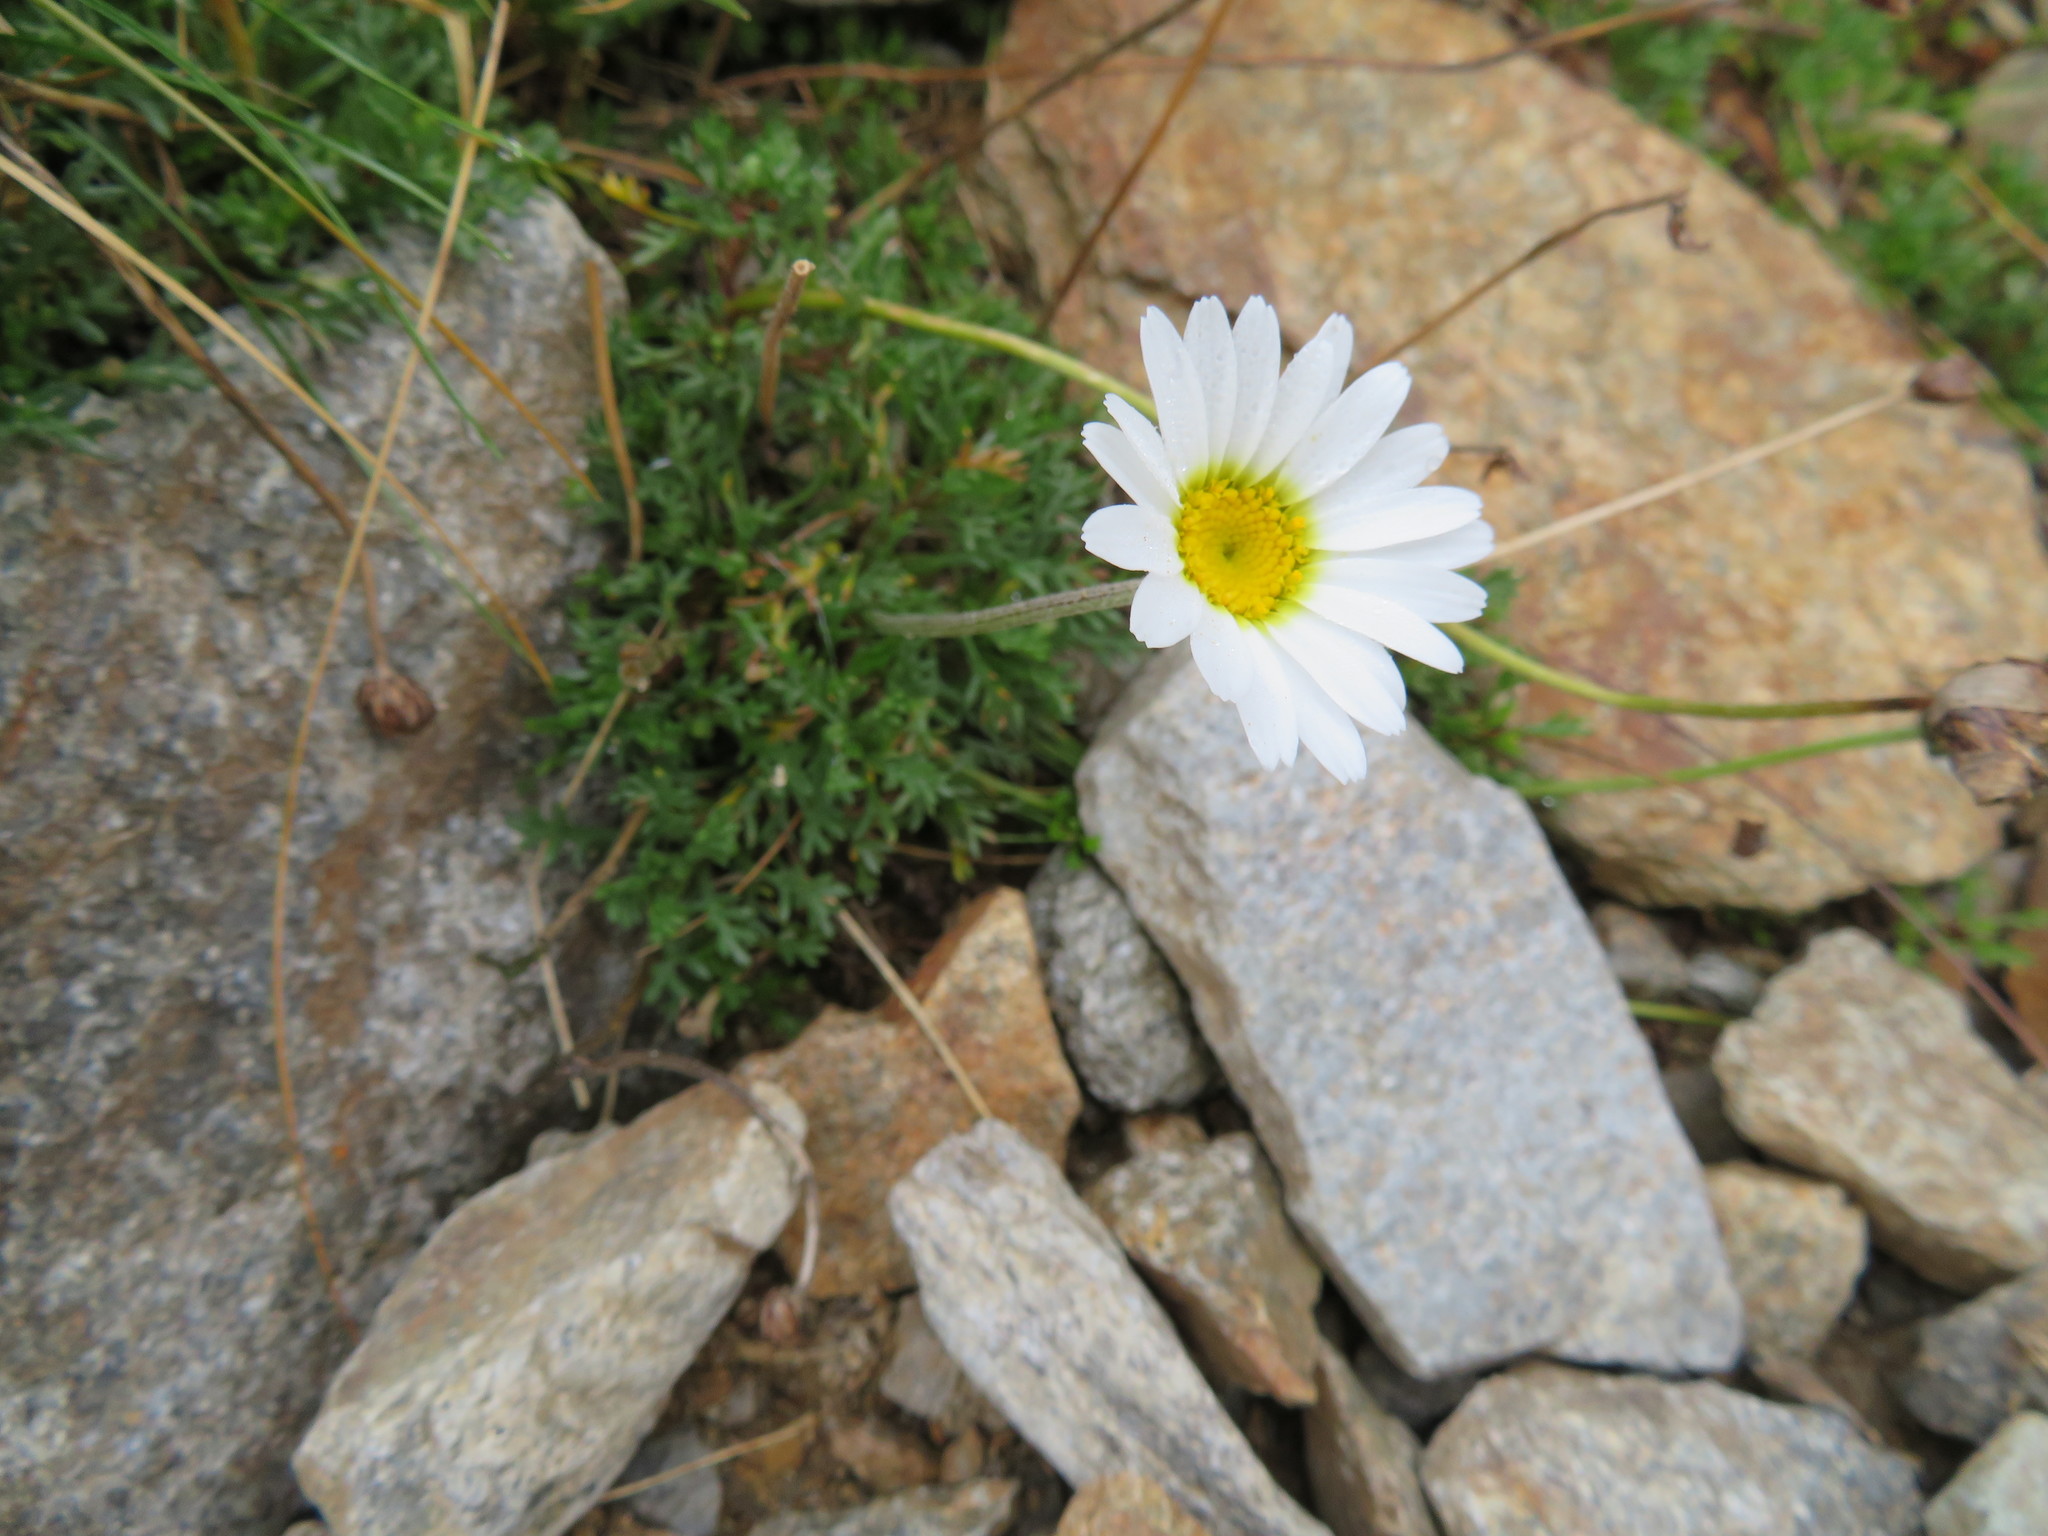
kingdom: Plantae
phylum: Tracheophyta
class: Magnoliopsida
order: Asterales
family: Asteraceae
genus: Leucanthemopsis
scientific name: Leucanthemopsis alpina
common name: Alpine moon daisy
